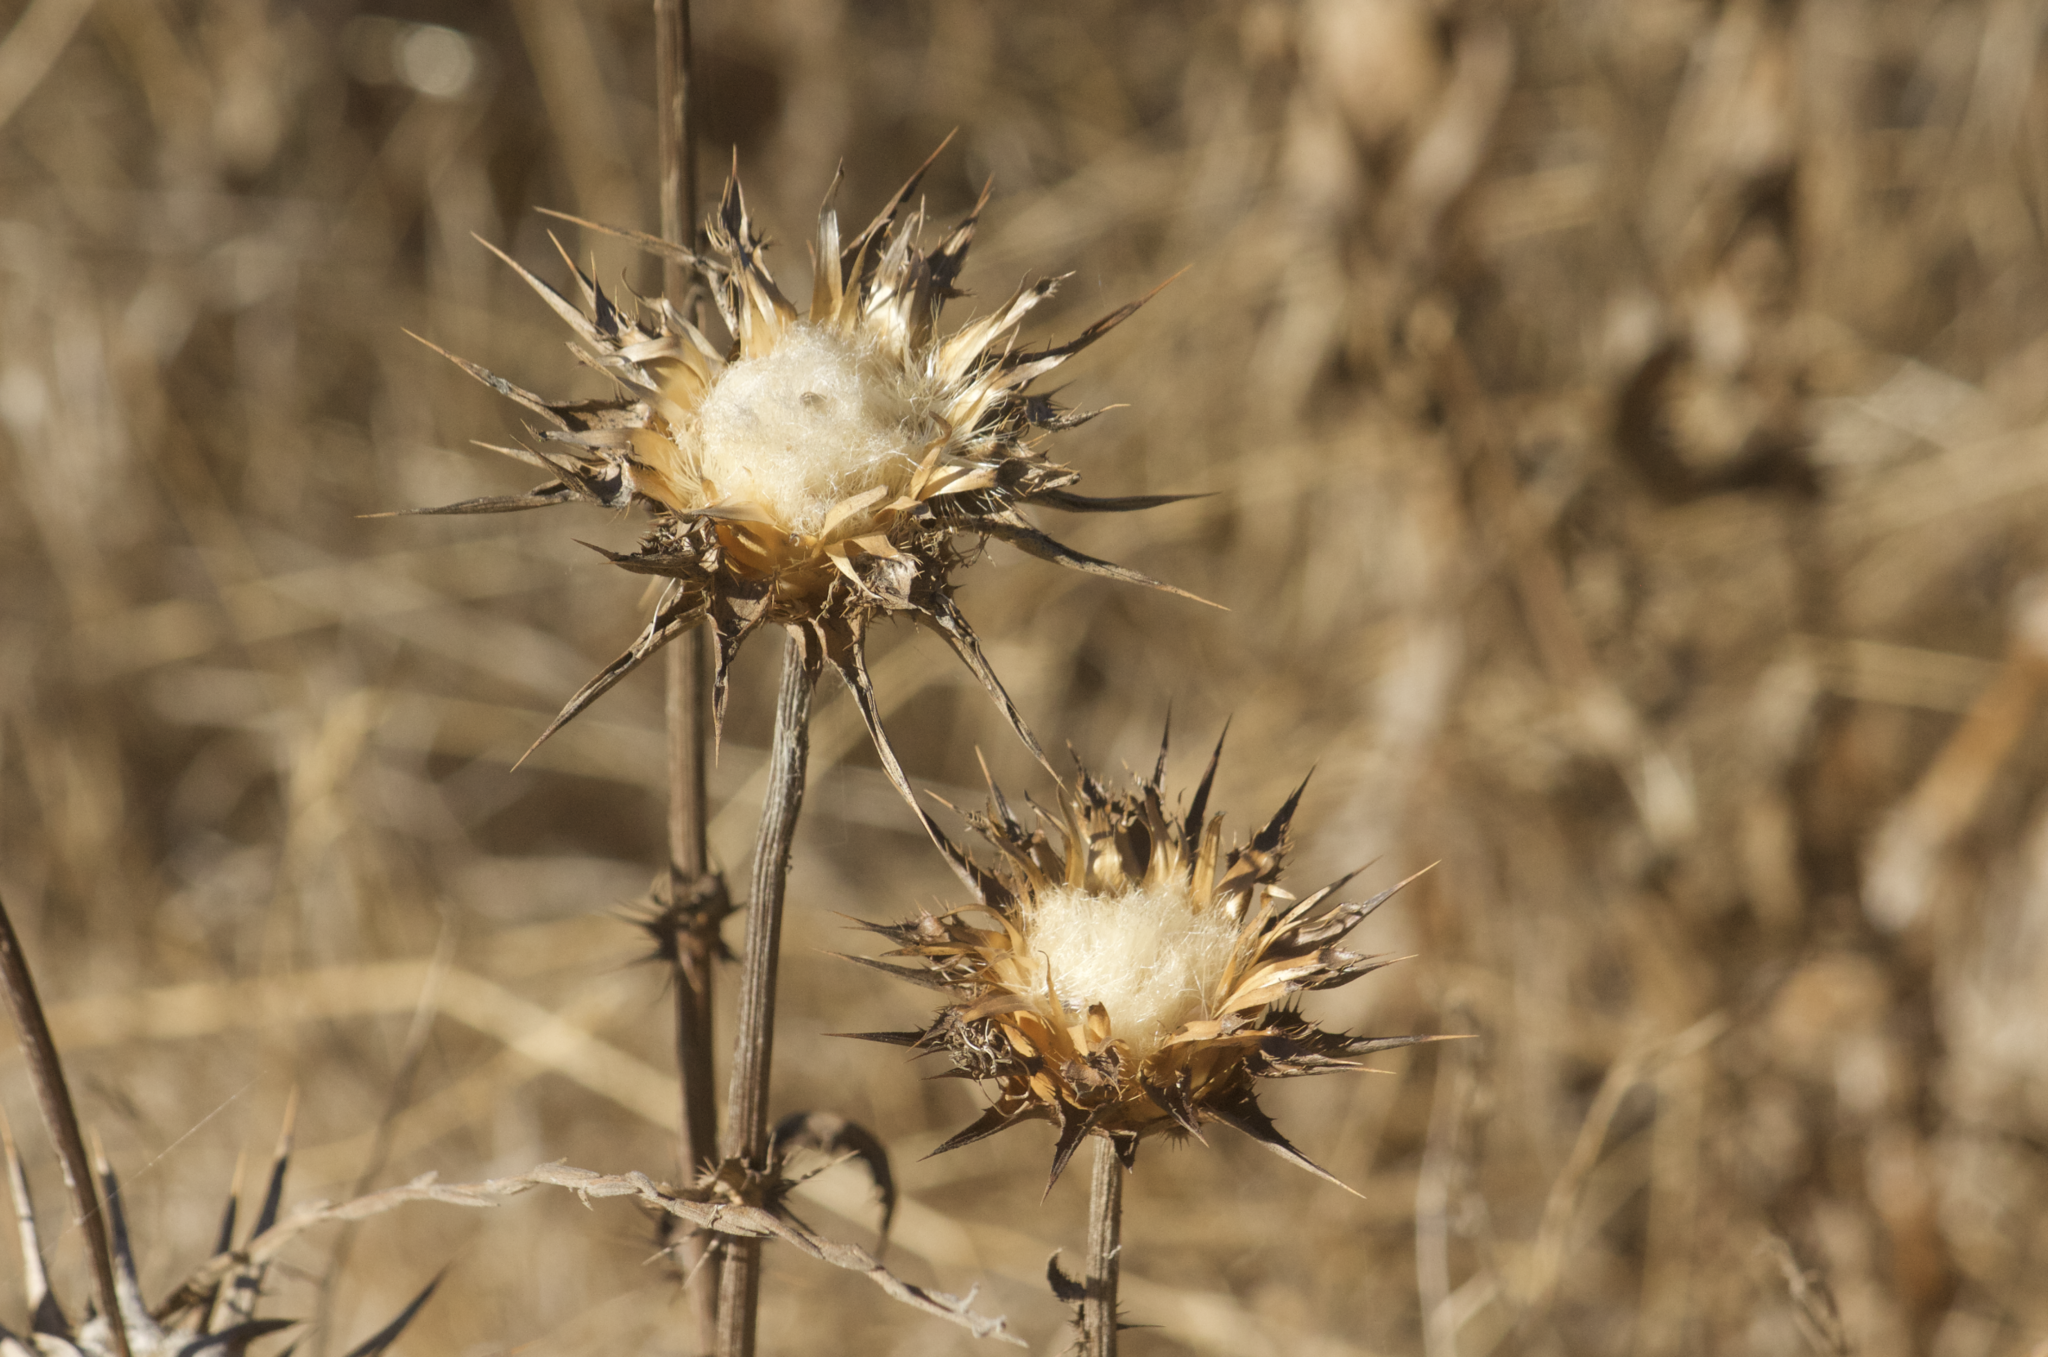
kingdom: Plantae
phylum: Tracheophyta
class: Magnoliopsida
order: Asterales
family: Asteraceae
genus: Silybum
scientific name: Silybum marianum
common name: Milk thistle
